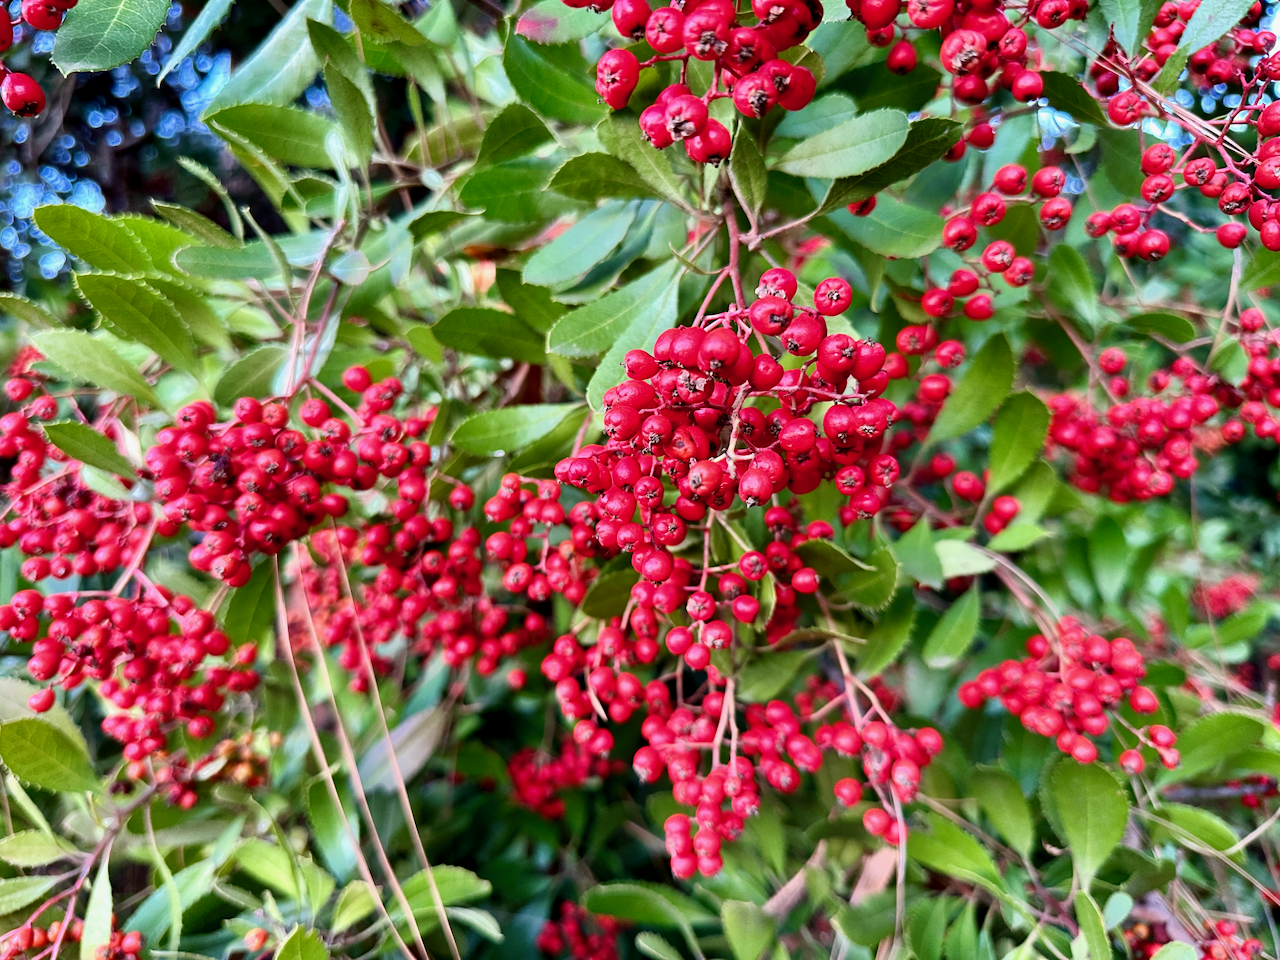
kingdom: Plantae
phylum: Tracheophyta
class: Magnoliopsida
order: Rosales
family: Rosaceae
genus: Heteromeles
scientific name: Heteromeles arbutifolia
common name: California-holly
